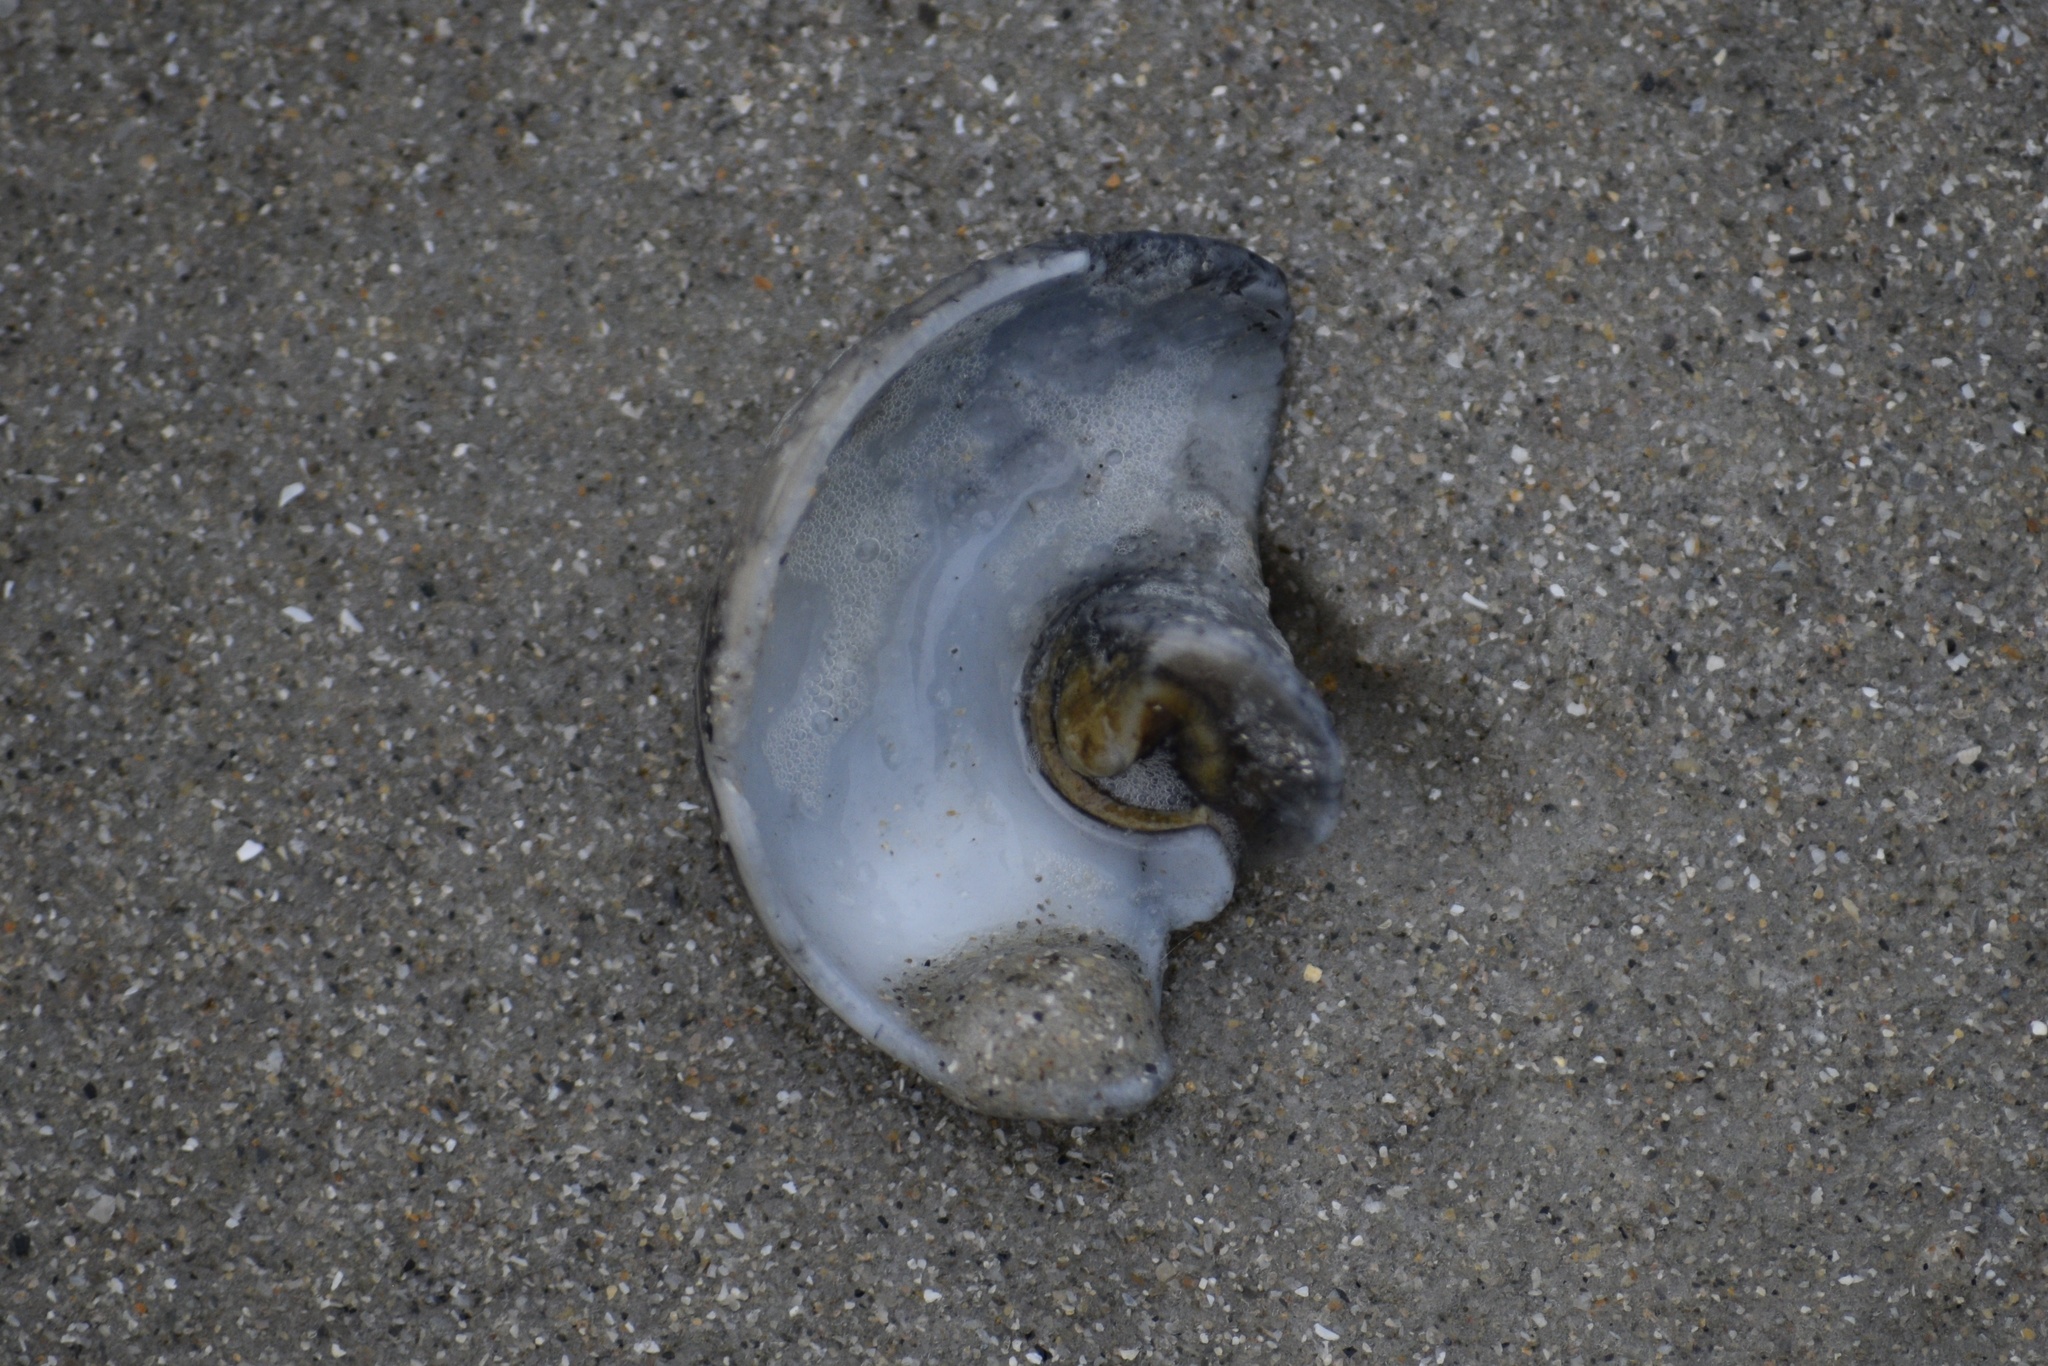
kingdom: Animalia
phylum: Mollusca
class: Gastropoda
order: Littorinimorpha
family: Naticidae
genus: Neverita
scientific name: Neverita duplicata
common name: Lobed moonsnail
